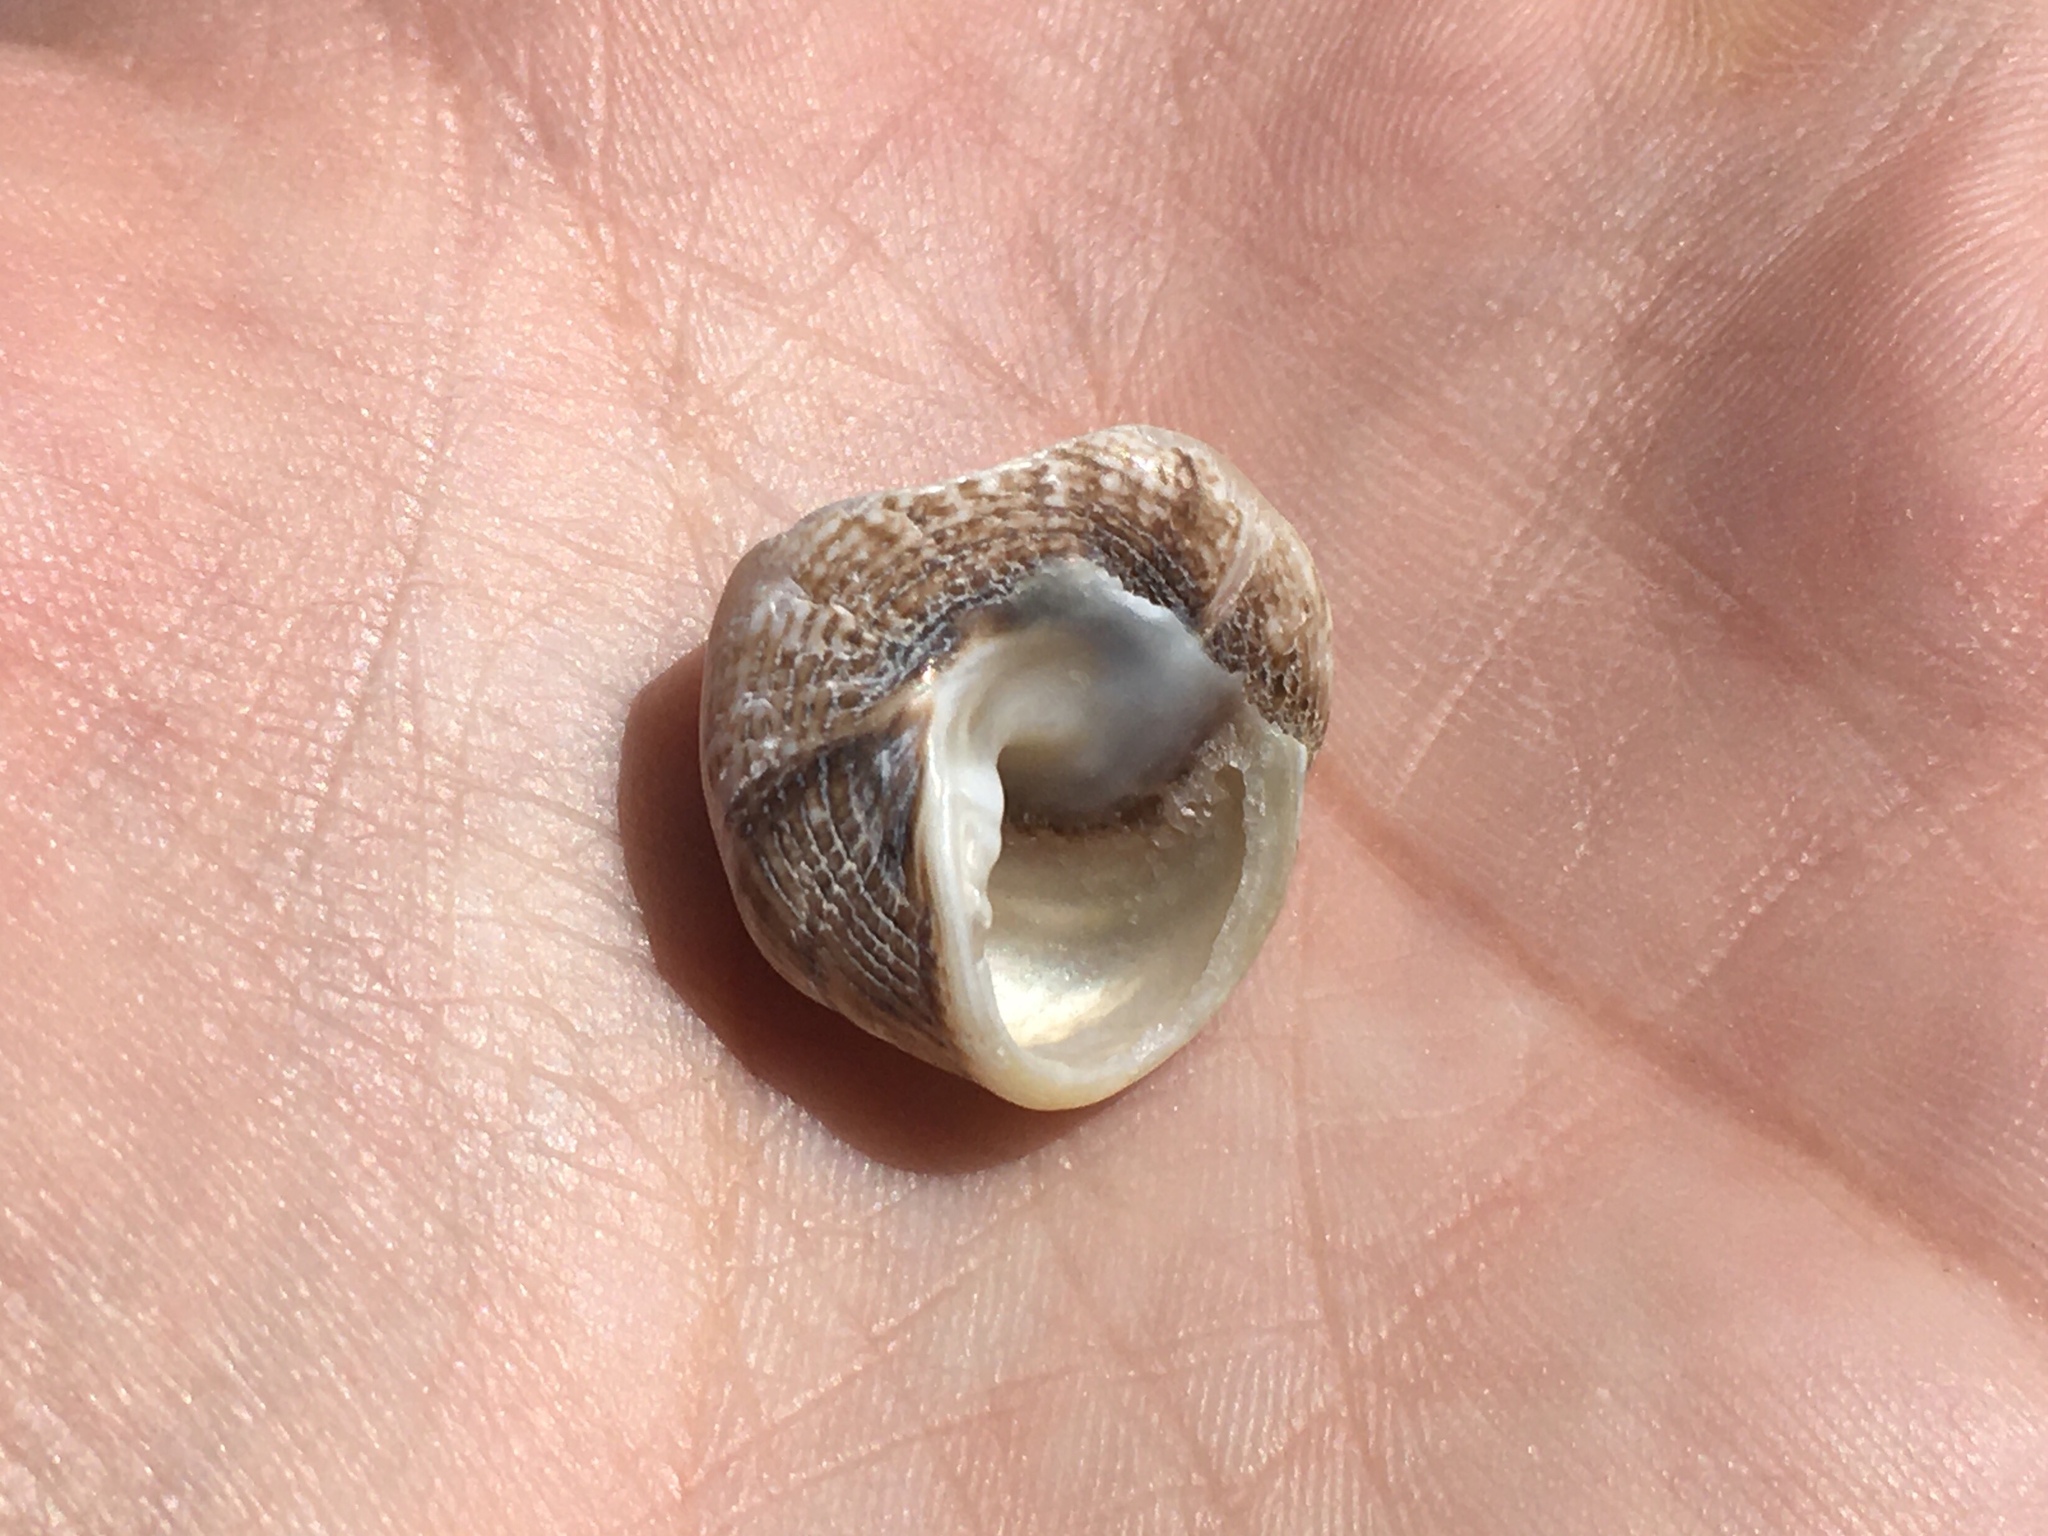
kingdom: Animalia
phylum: Mollusca
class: Gastropoda
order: Trochida
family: Tegulidae
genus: Tegula
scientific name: Tegula patagonica
